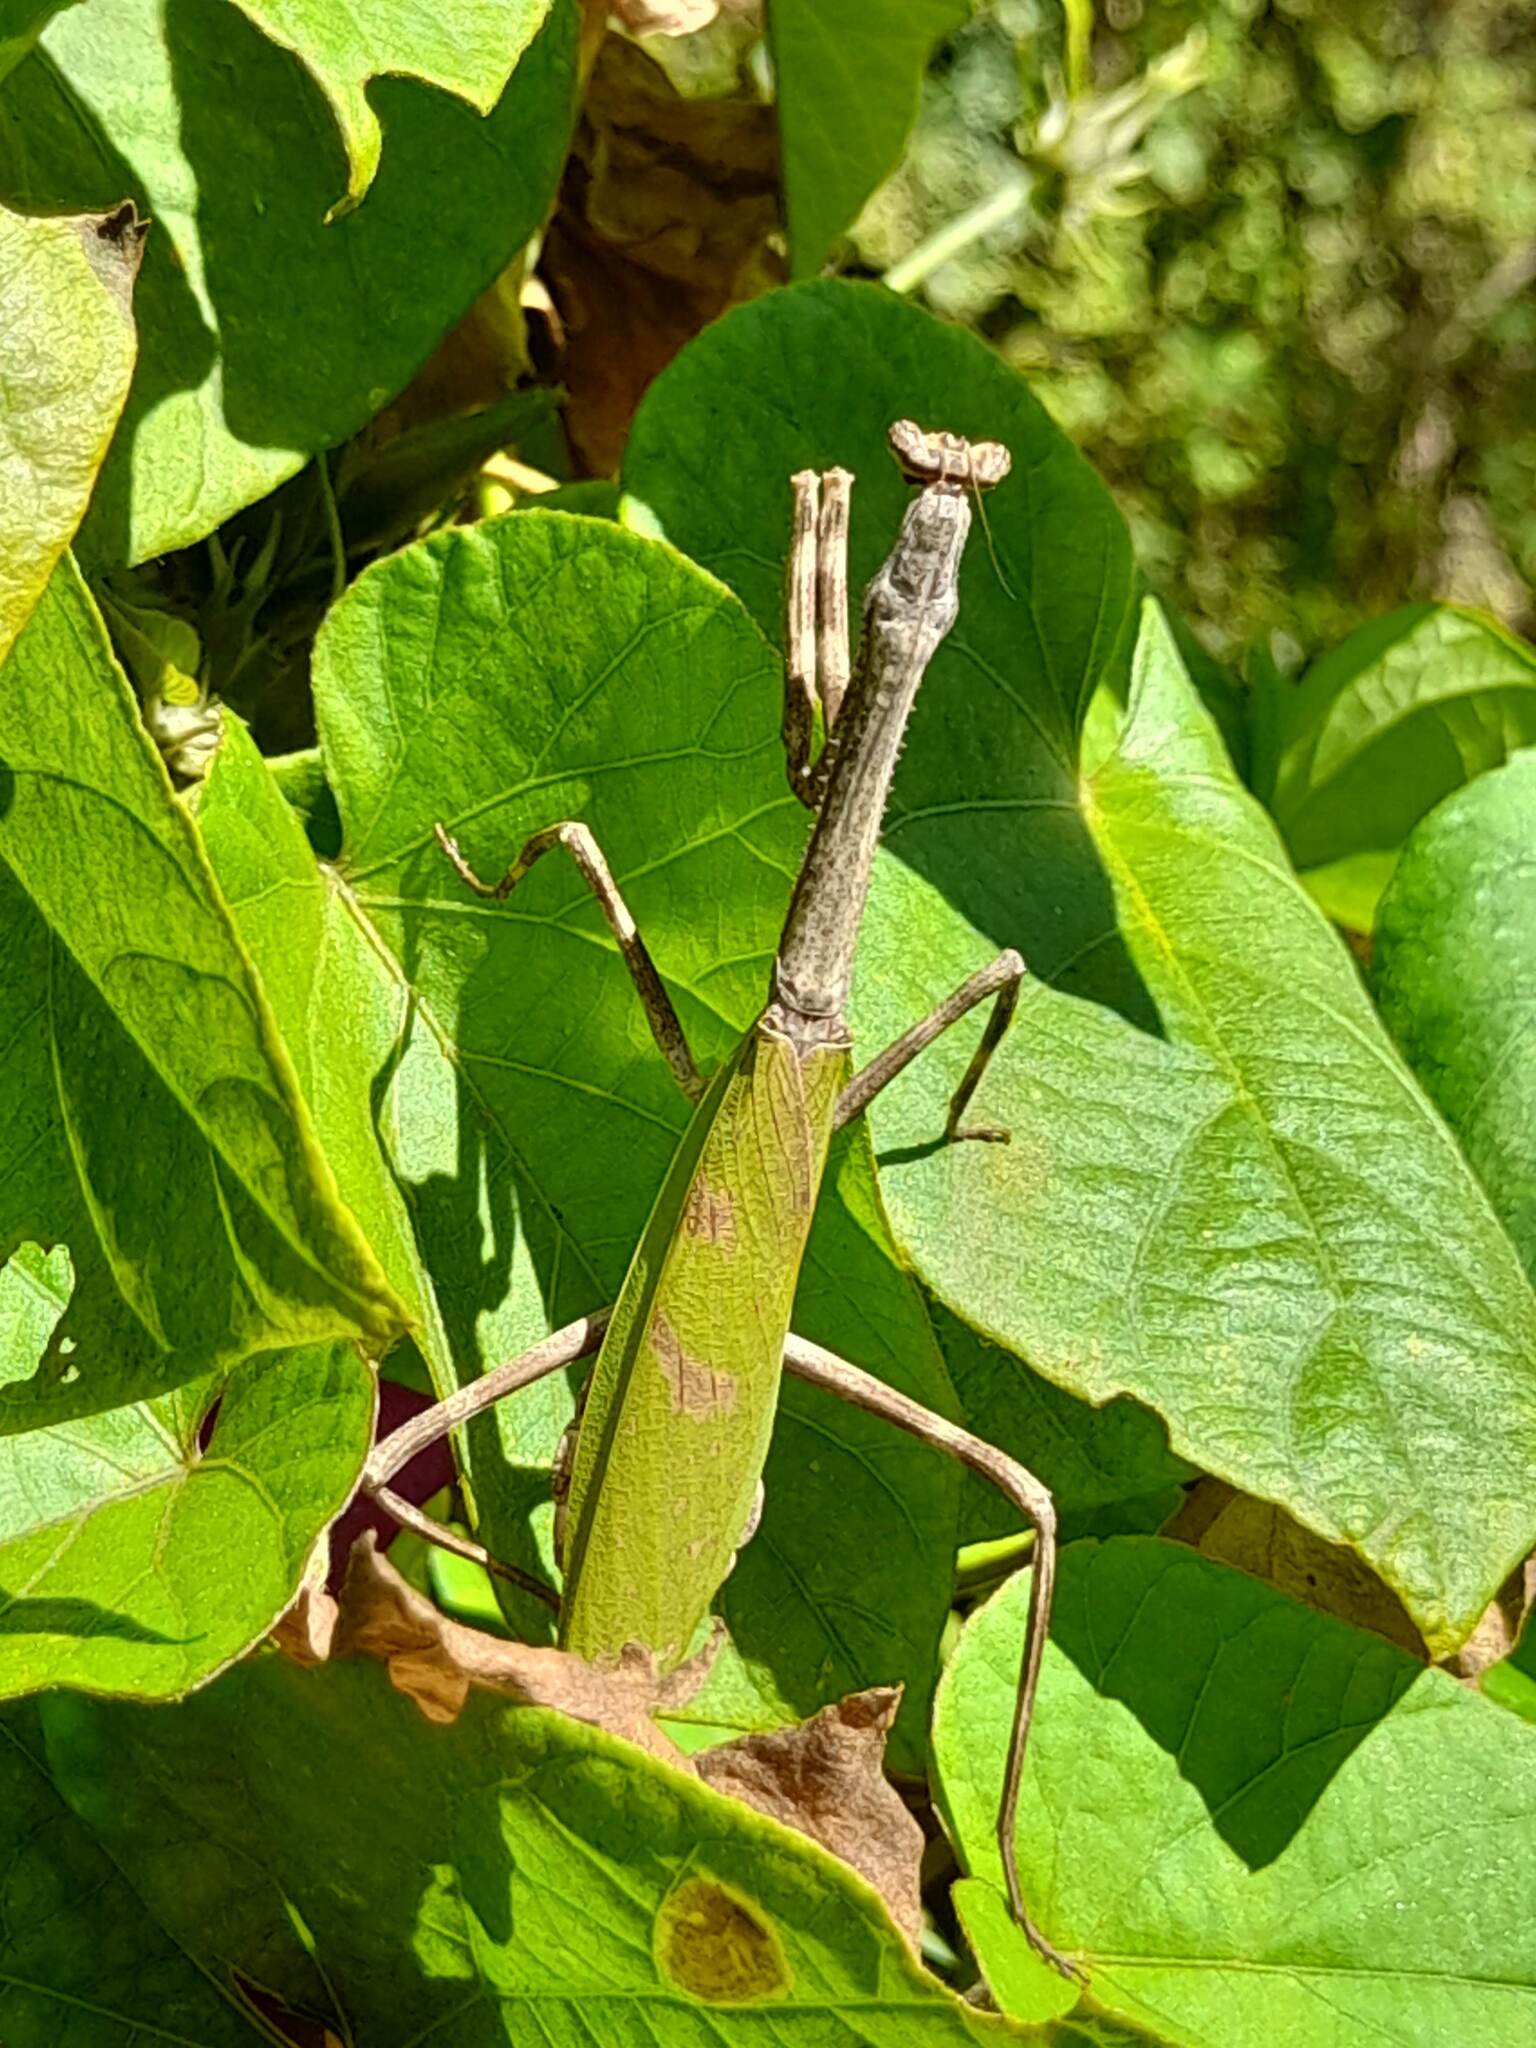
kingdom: Animalia
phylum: Arthropoda
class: Insecta
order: Mantodea
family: Mantidae
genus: Pseudovates
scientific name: Pseudovates iheringi
